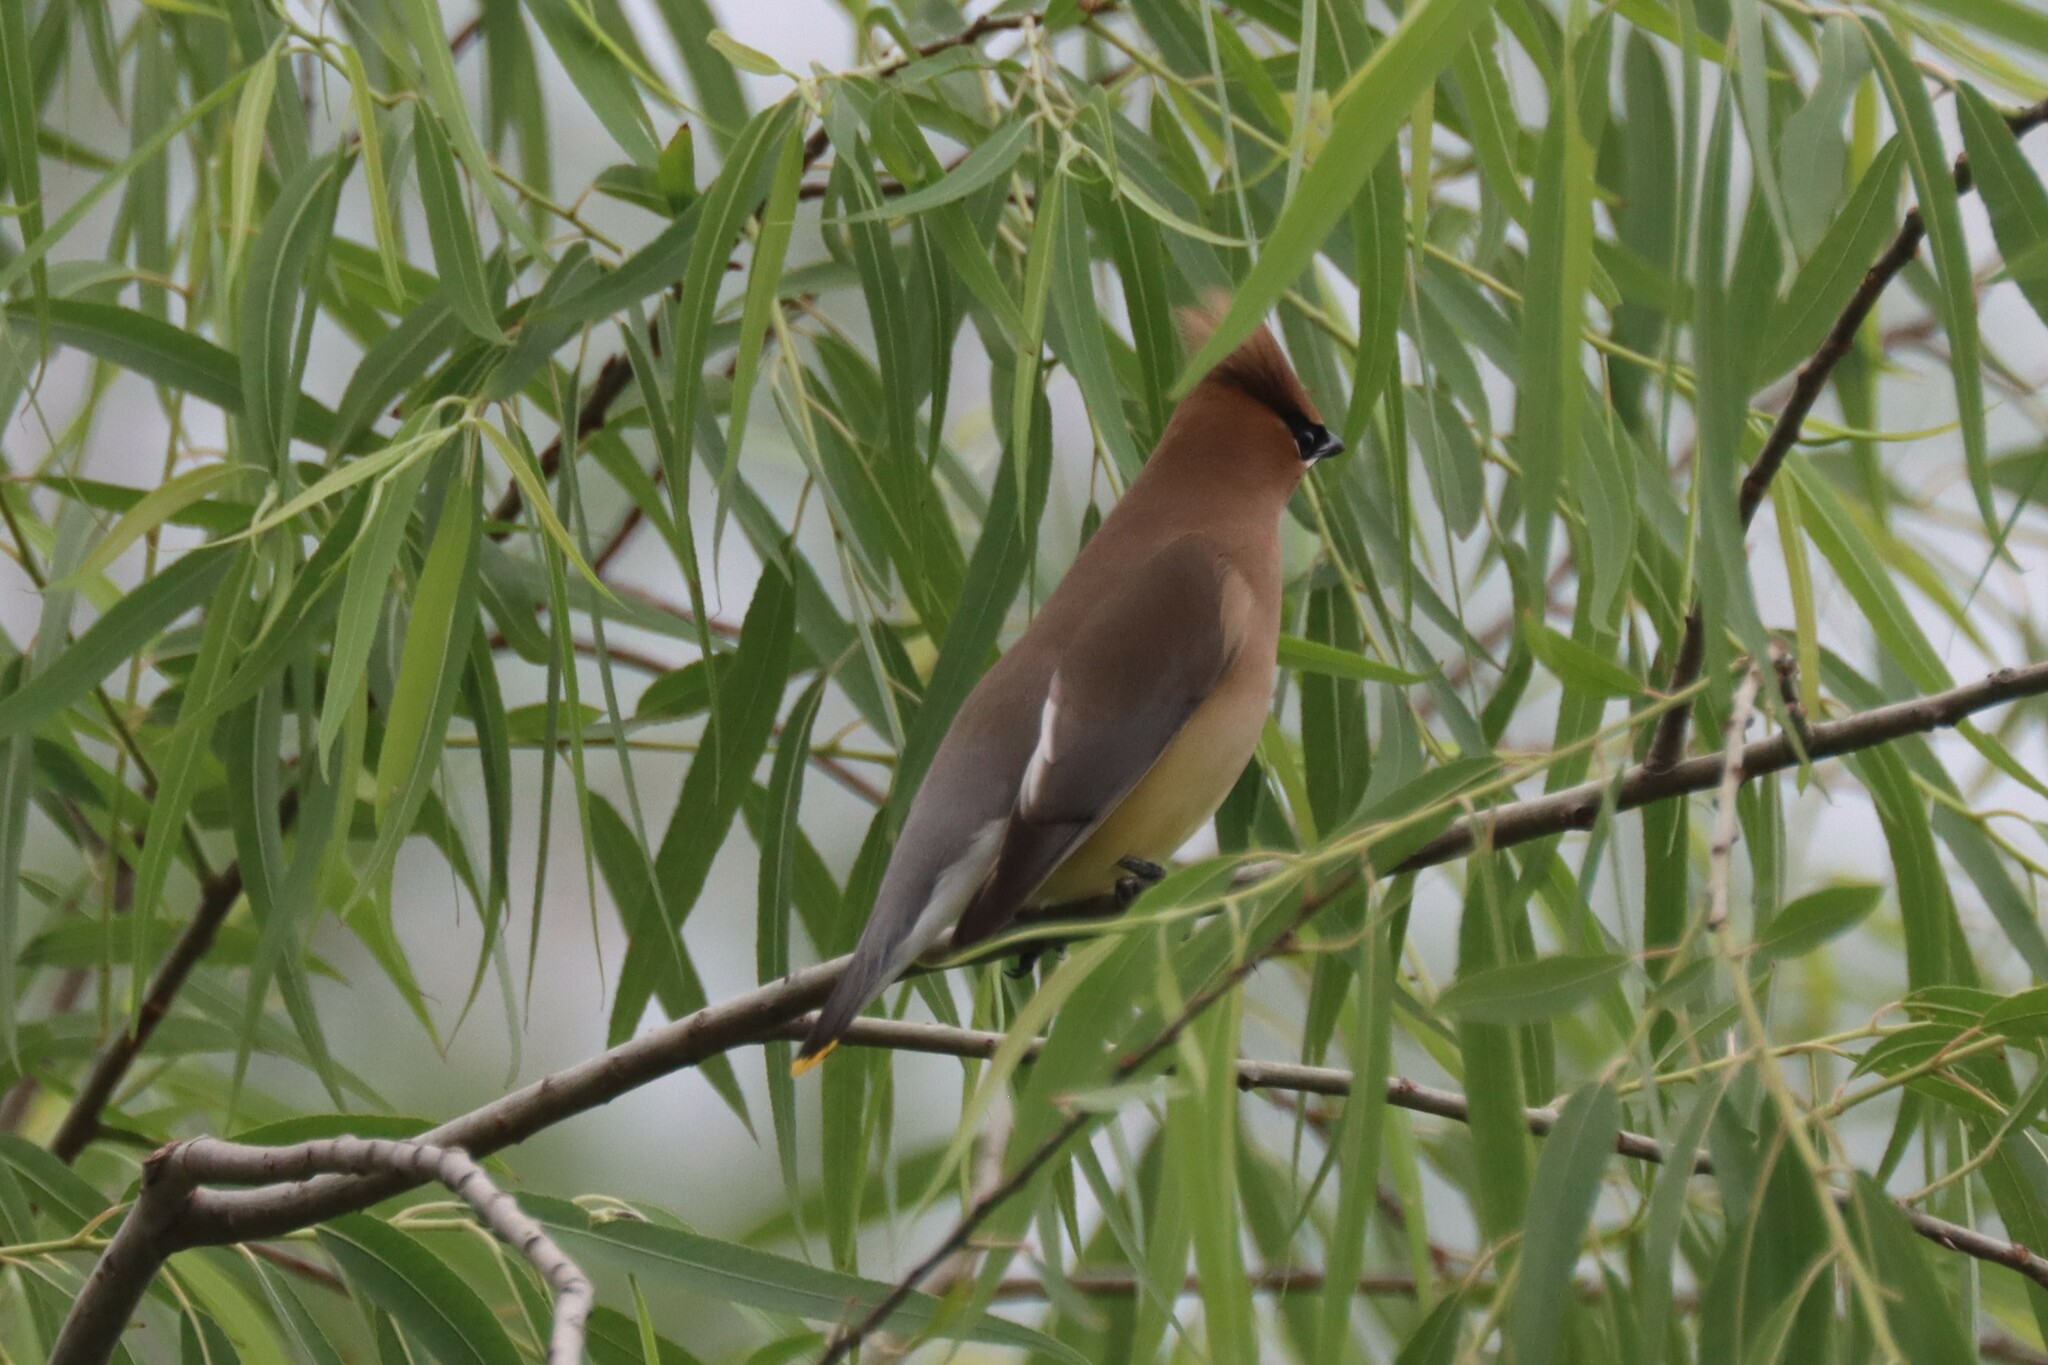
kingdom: Animalia
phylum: Chordata
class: Aves
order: Passeriformes
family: Bombycillidae
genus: Bombycilla
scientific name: Bombycilla cedrorum
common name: Cedar waxwing
